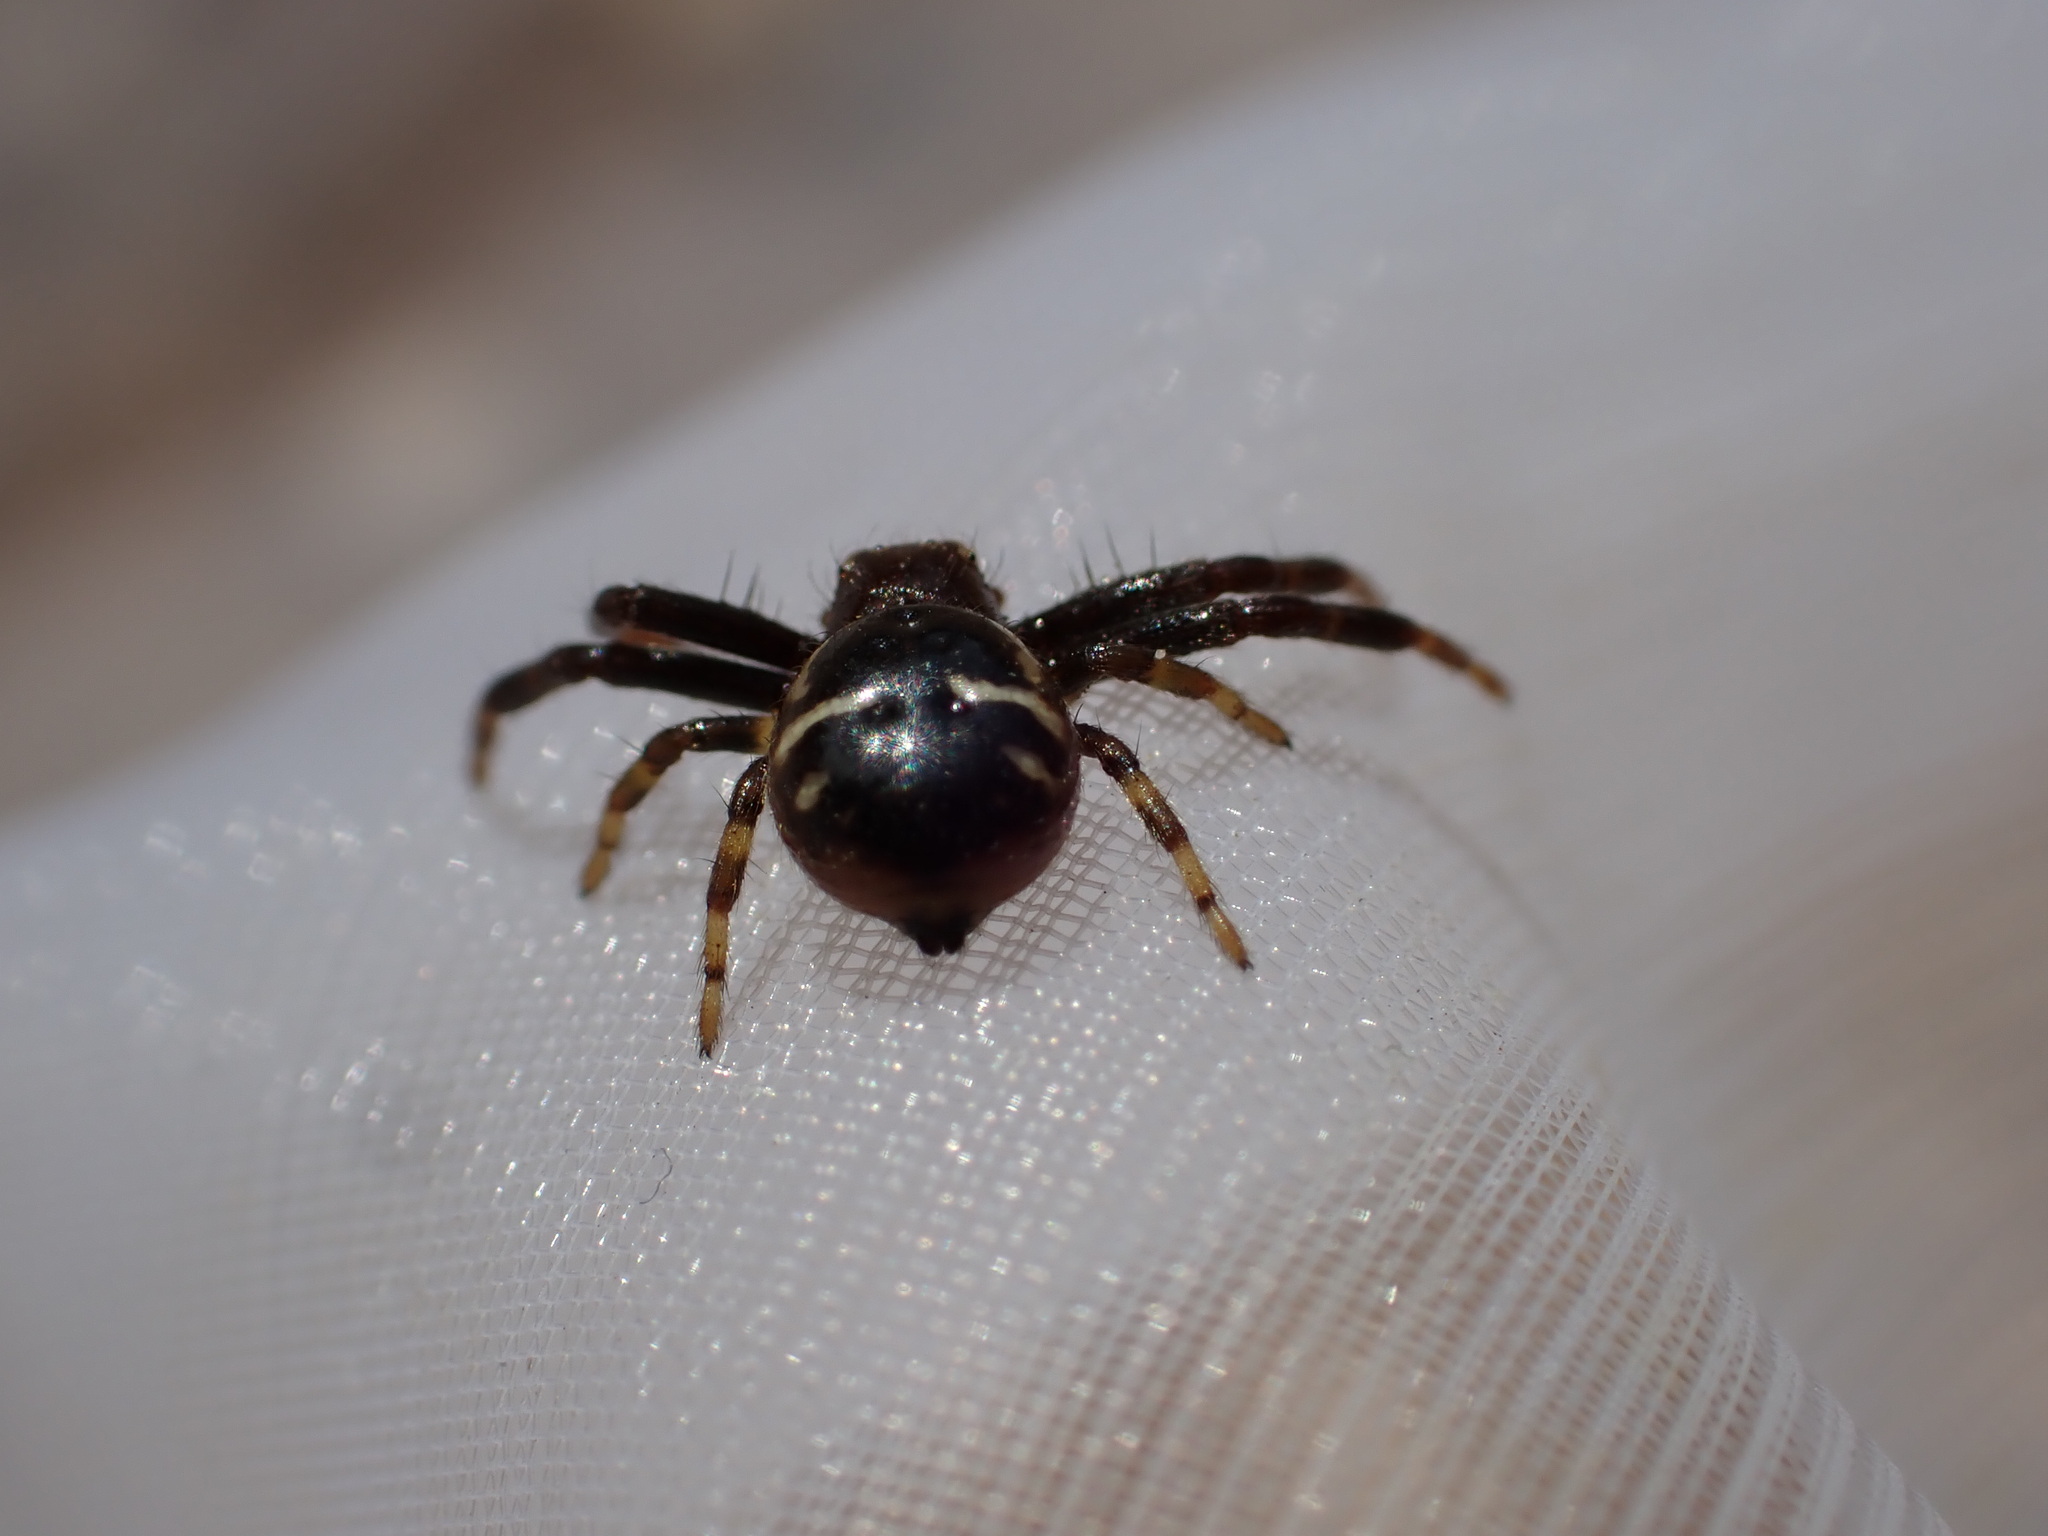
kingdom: Animalia
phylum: Arthropoda
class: Arachnida
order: Araneae
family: Thomisidae
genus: Synema
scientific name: Synema globosum
